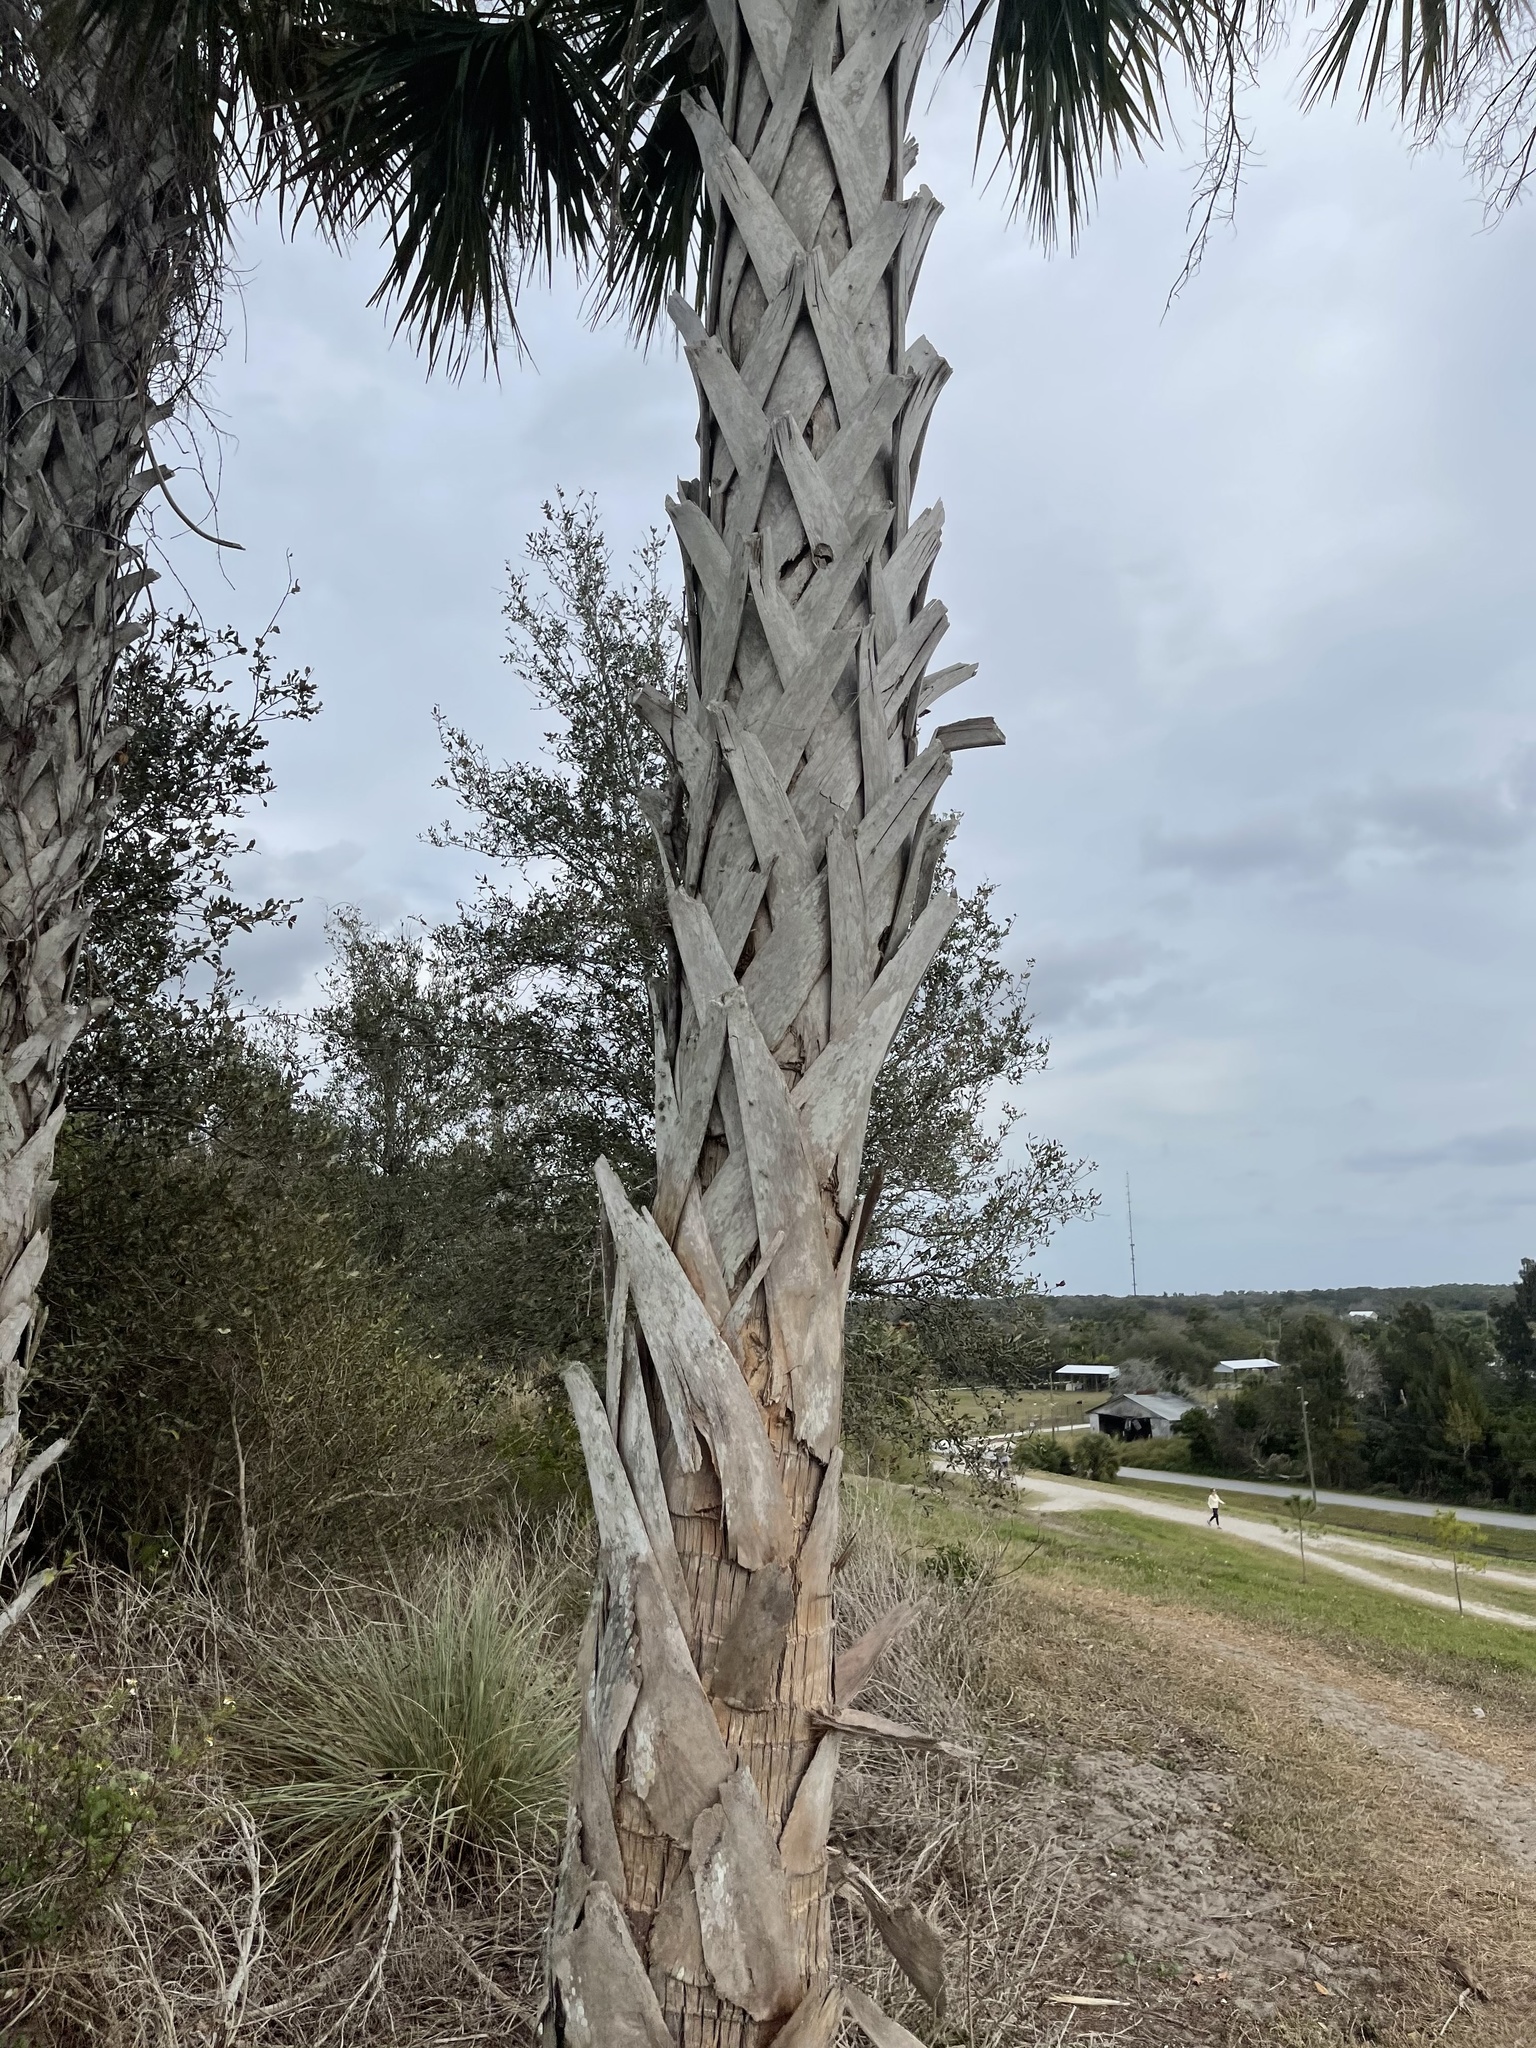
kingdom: Plantae
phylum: Tracheophyta
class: Liliopsida
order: Arecales
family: Arecaceae
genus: Sabal
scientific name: Sabal palmetto
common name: Blue palmetto
